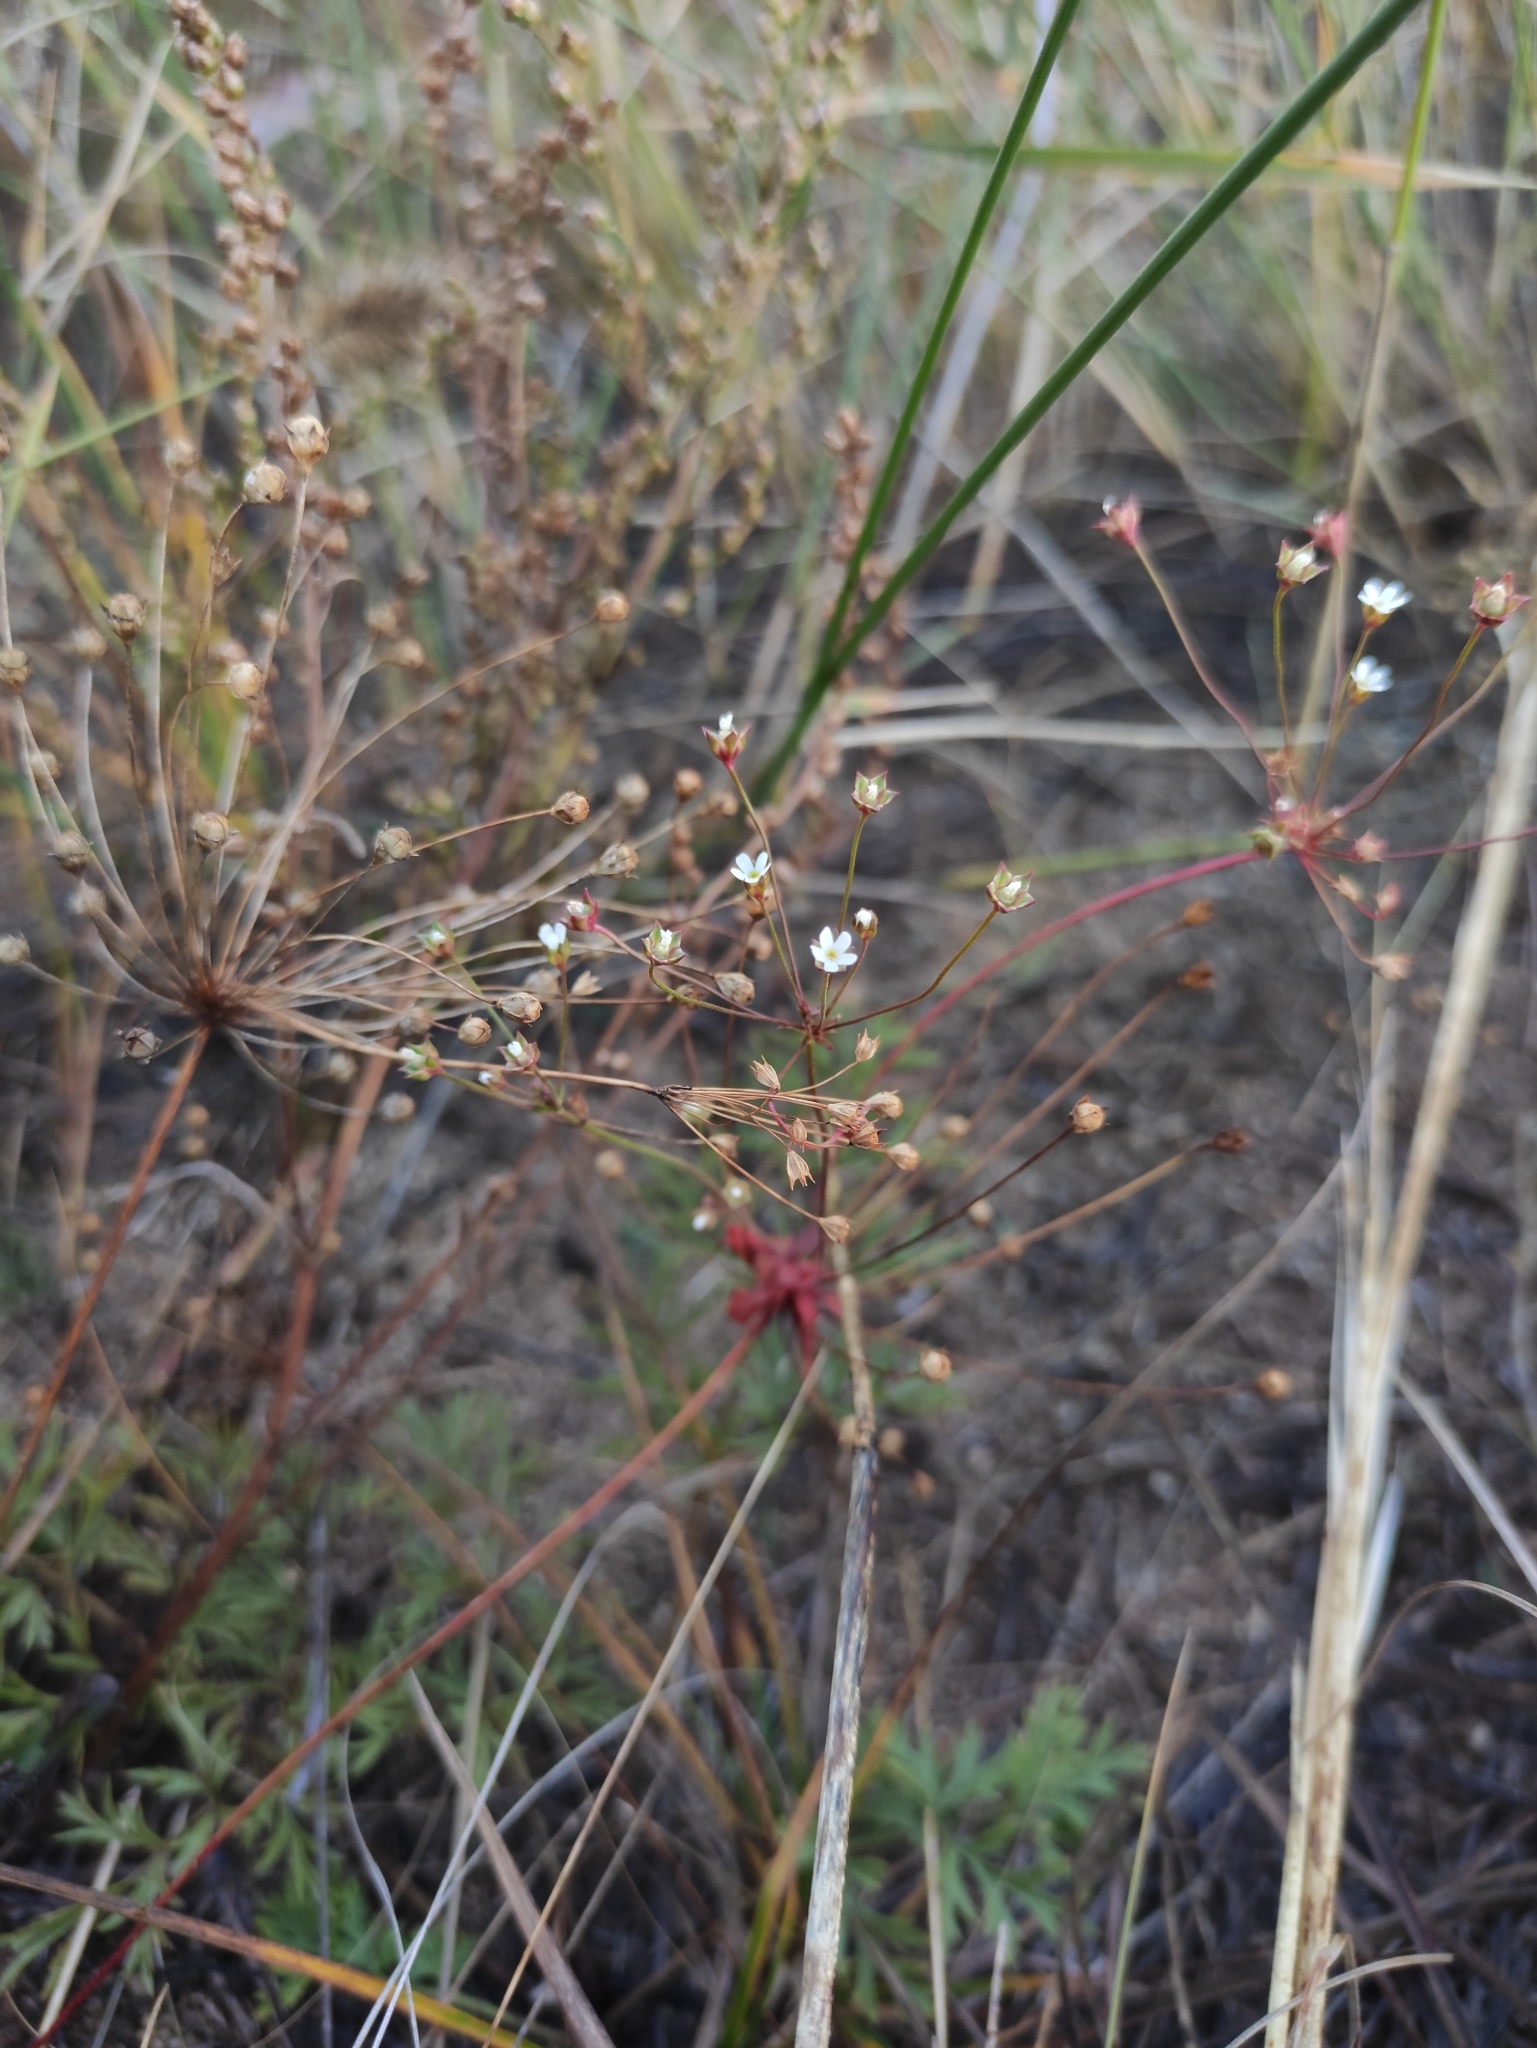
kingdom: Plantae
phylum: Tracheophyta
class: Magnoliopsida
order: Ericales
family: Primulaceae
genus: Androsace
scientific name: Androsace septentrionalis
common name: Hairy northern fairy-candelabra
